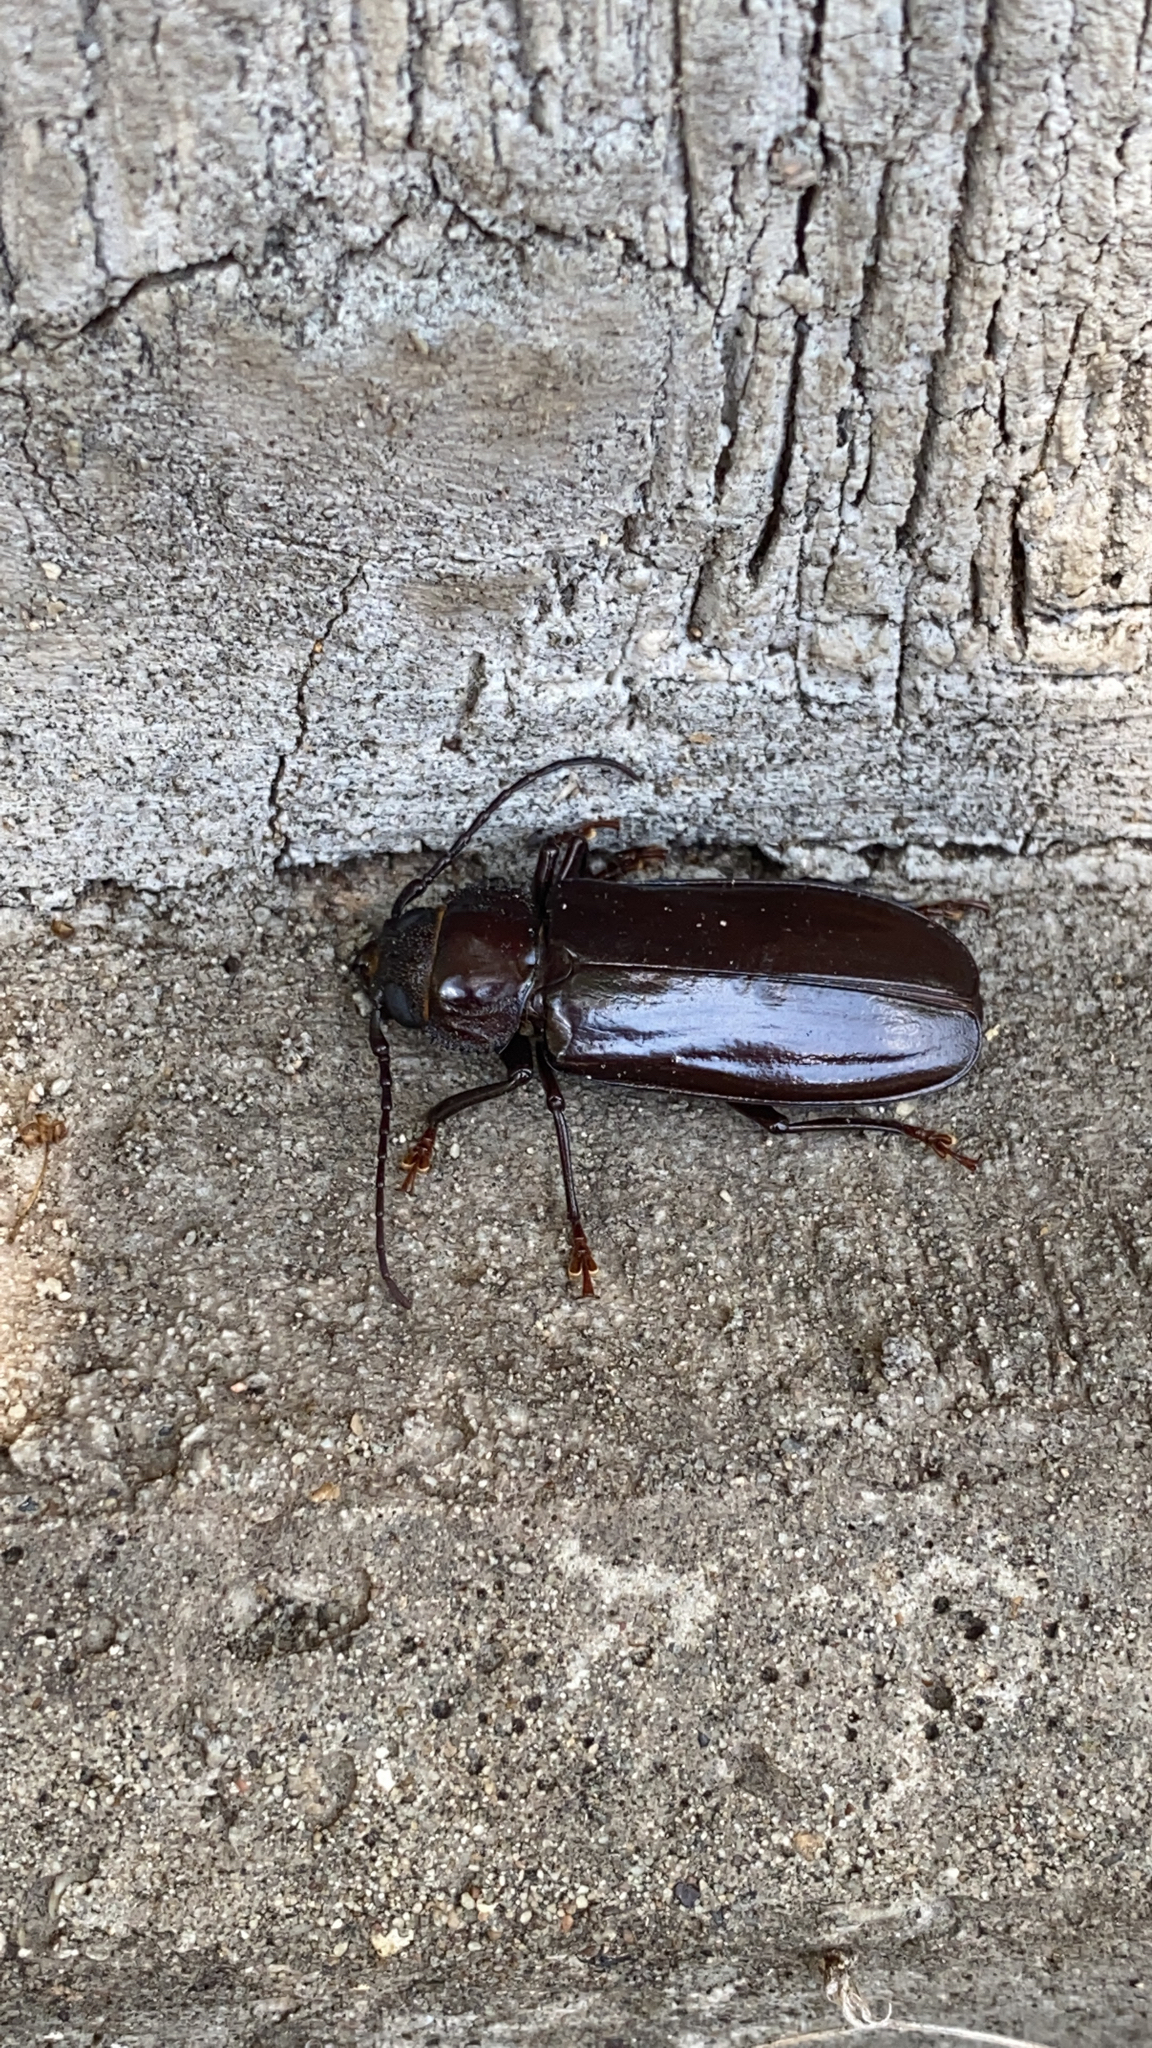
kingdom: Animalia
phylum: Arthropoda
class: Insecta
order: Coleoptera
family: Cerambycidae
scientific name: Cerambycidae
